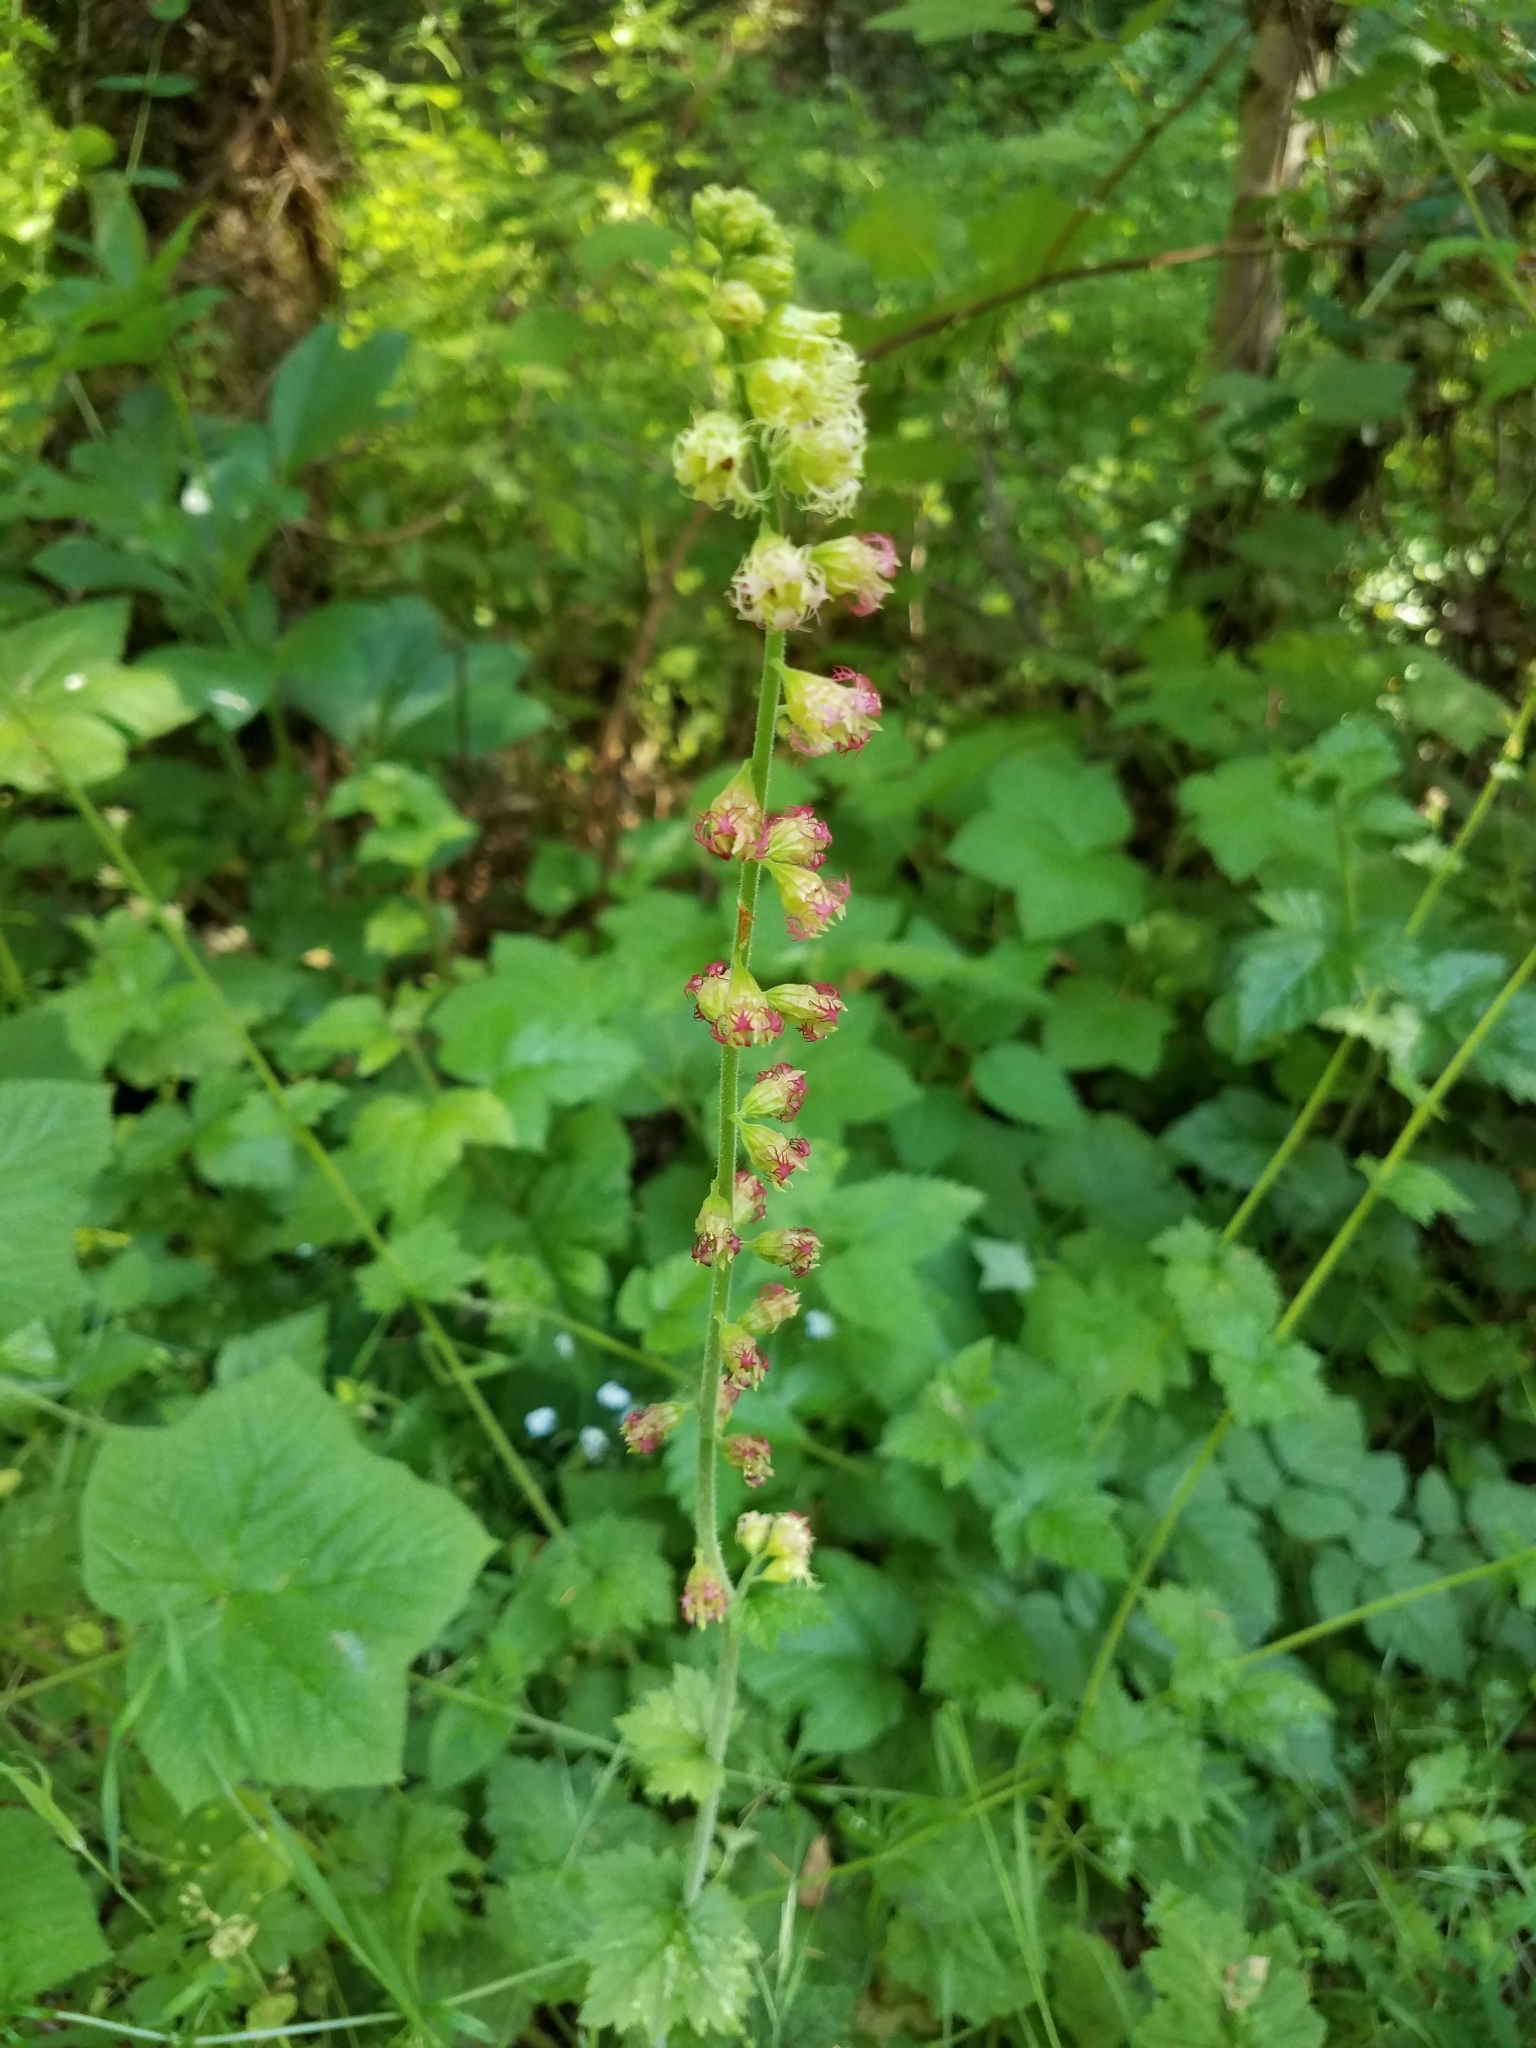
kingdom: Plantae
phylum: Tracheophyta
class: Magnoliopsida
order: Saxifragales
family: Saxifragaceae
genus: Tellima
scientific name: Tellima grandiflora
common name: Fringecups
